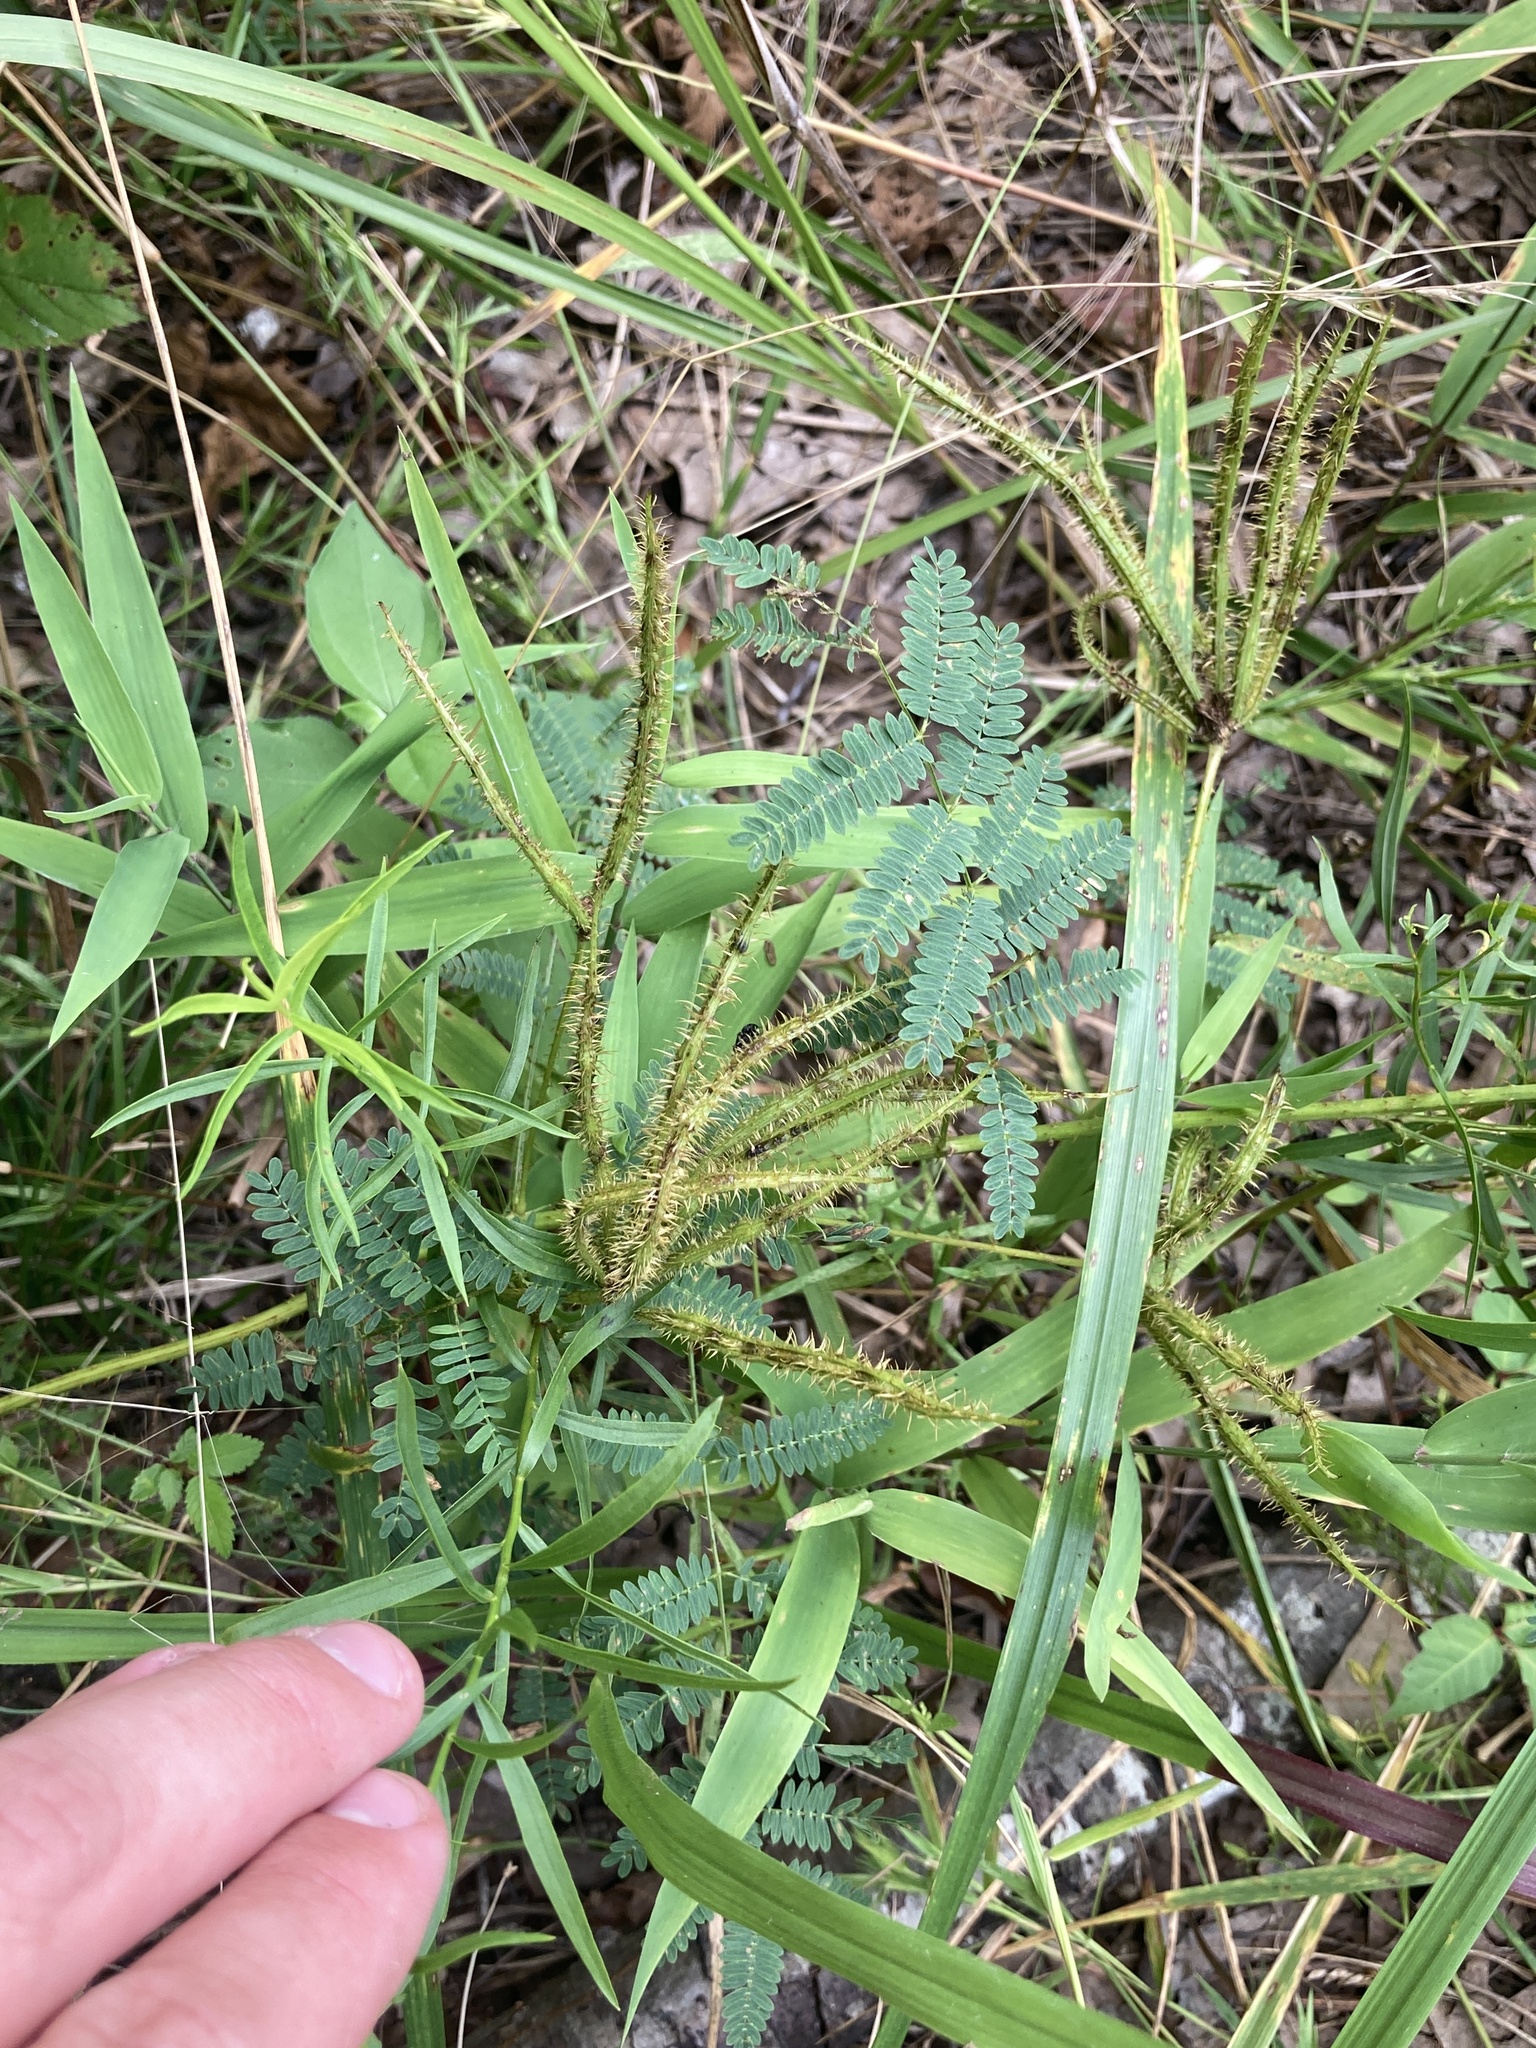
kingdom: Plantae
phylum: Tracheophyta
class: Magnoliopsida
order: Fabales
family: Fabaceae
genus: Mimosa
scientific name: Mimosa quadrivalvis
